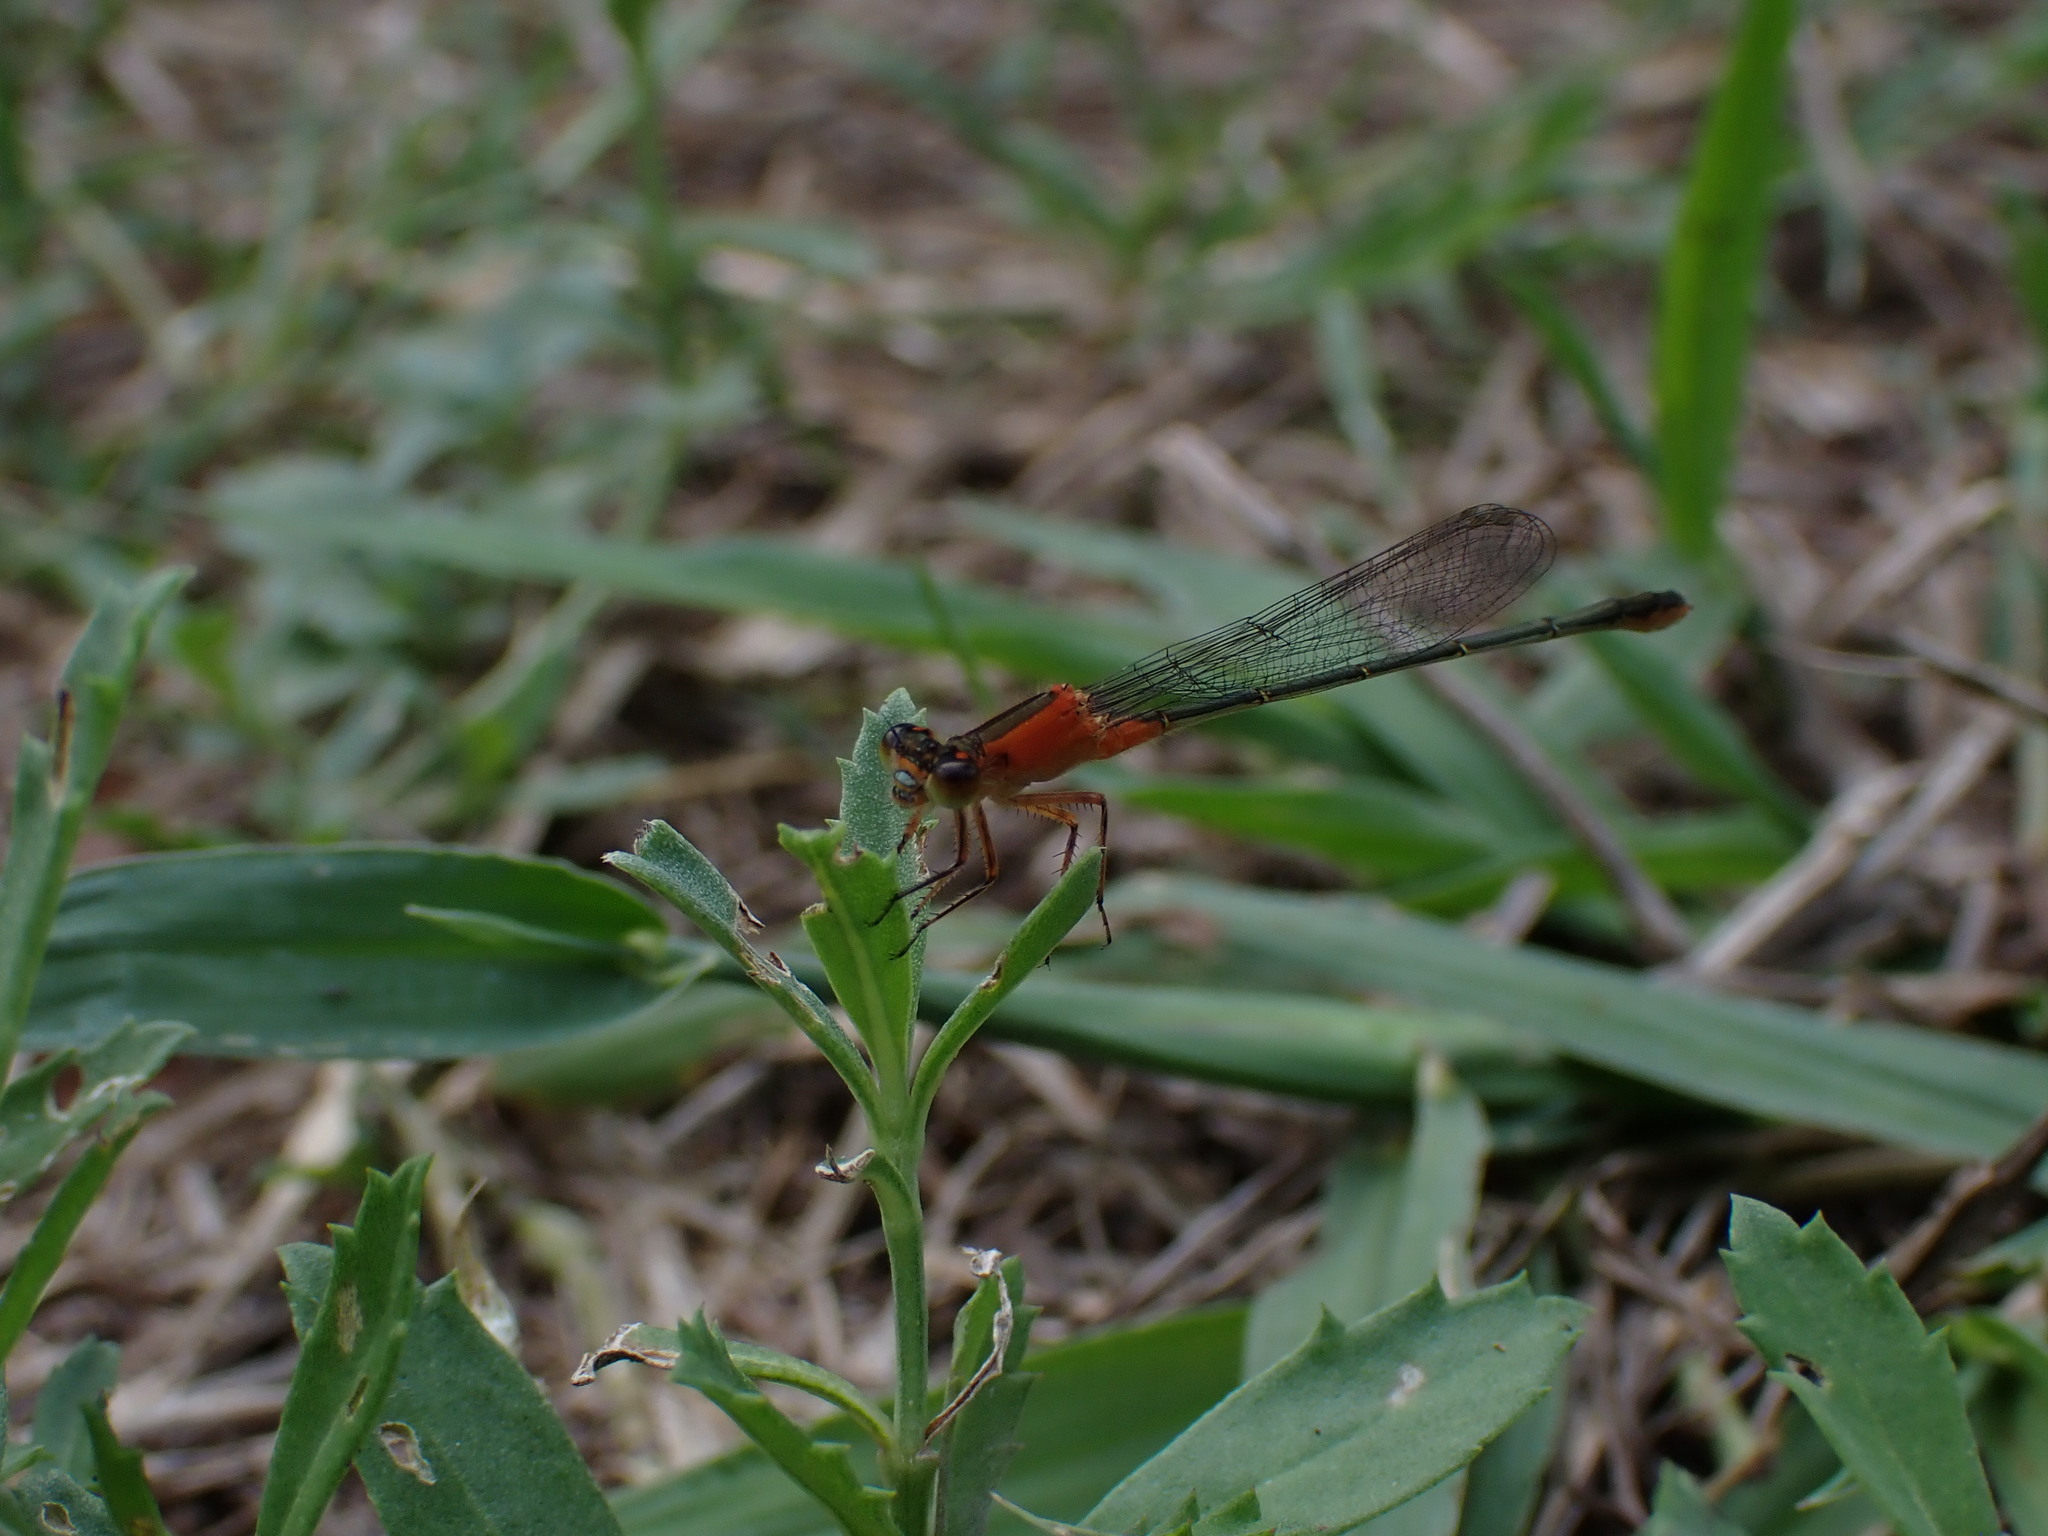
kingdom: Animalia
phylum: Arthropoda
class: Insecta
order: Odonata
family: Coenagrionidae
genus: Ischnura
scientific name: Ischnura ramburii
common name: Rambur's forktail
